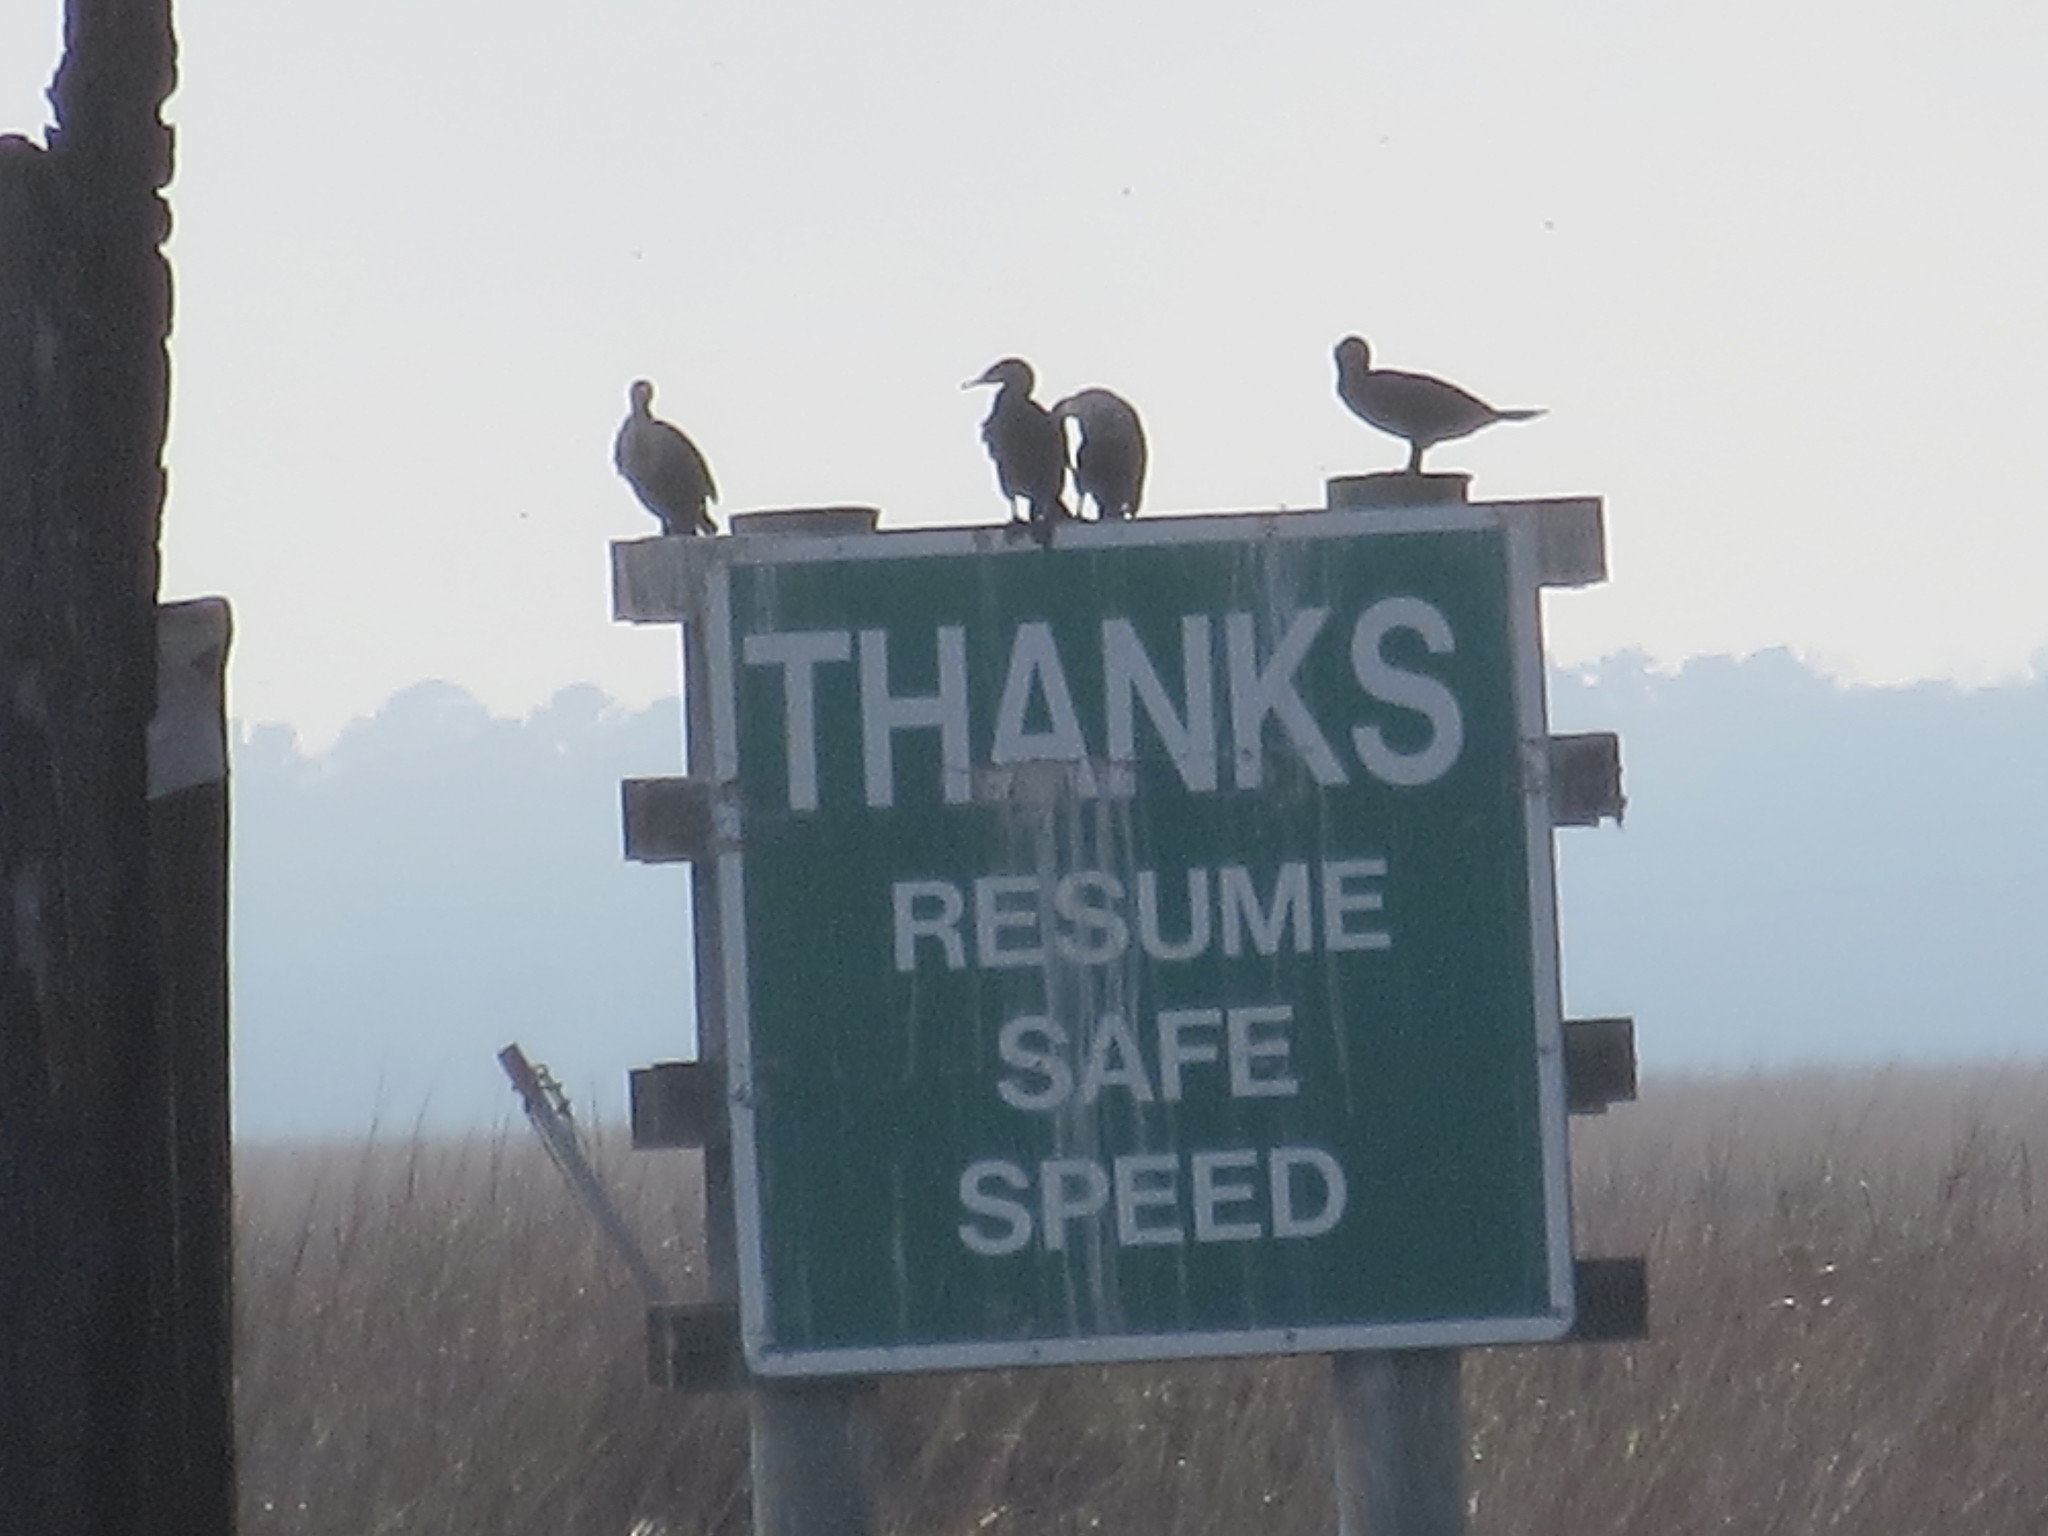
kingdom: Animalia
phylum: Chordata
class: Aves
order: Suliformes
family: Phalacrocoracidae
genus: Phalacrocorax
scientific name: Phalacrocorax auritus
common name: Double-crested cormorant
